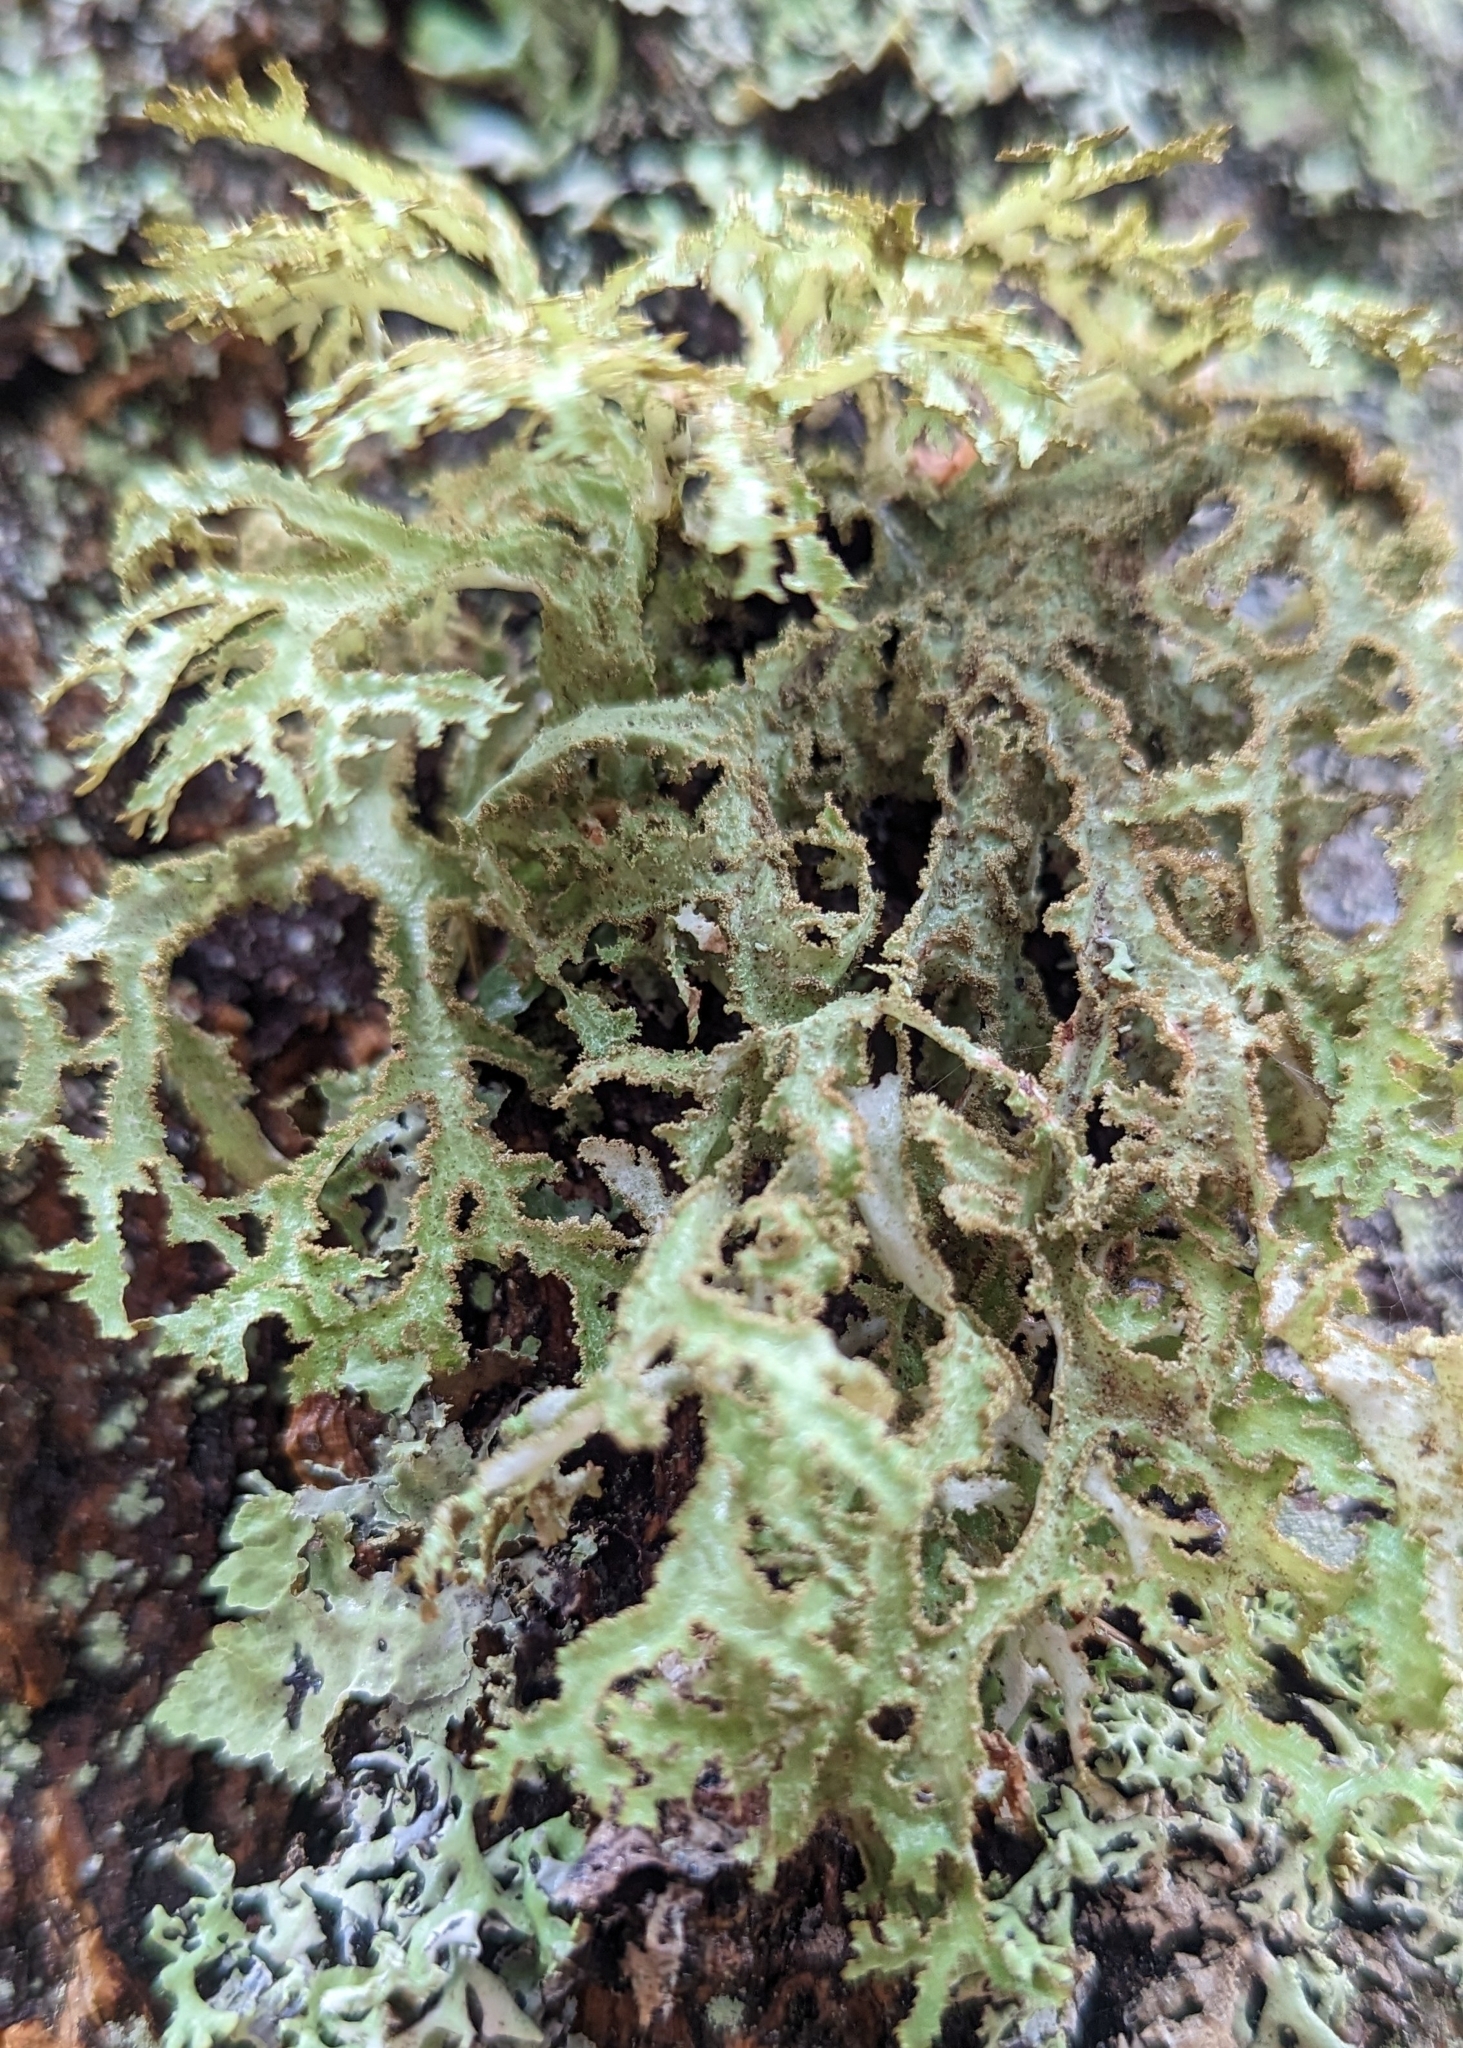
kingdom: Fungi
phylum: Ascomycota
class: Lecanoromycetes
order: Lecanorales
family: Parmeliaceae
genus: Platismatia
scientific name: Platismatia herrei
